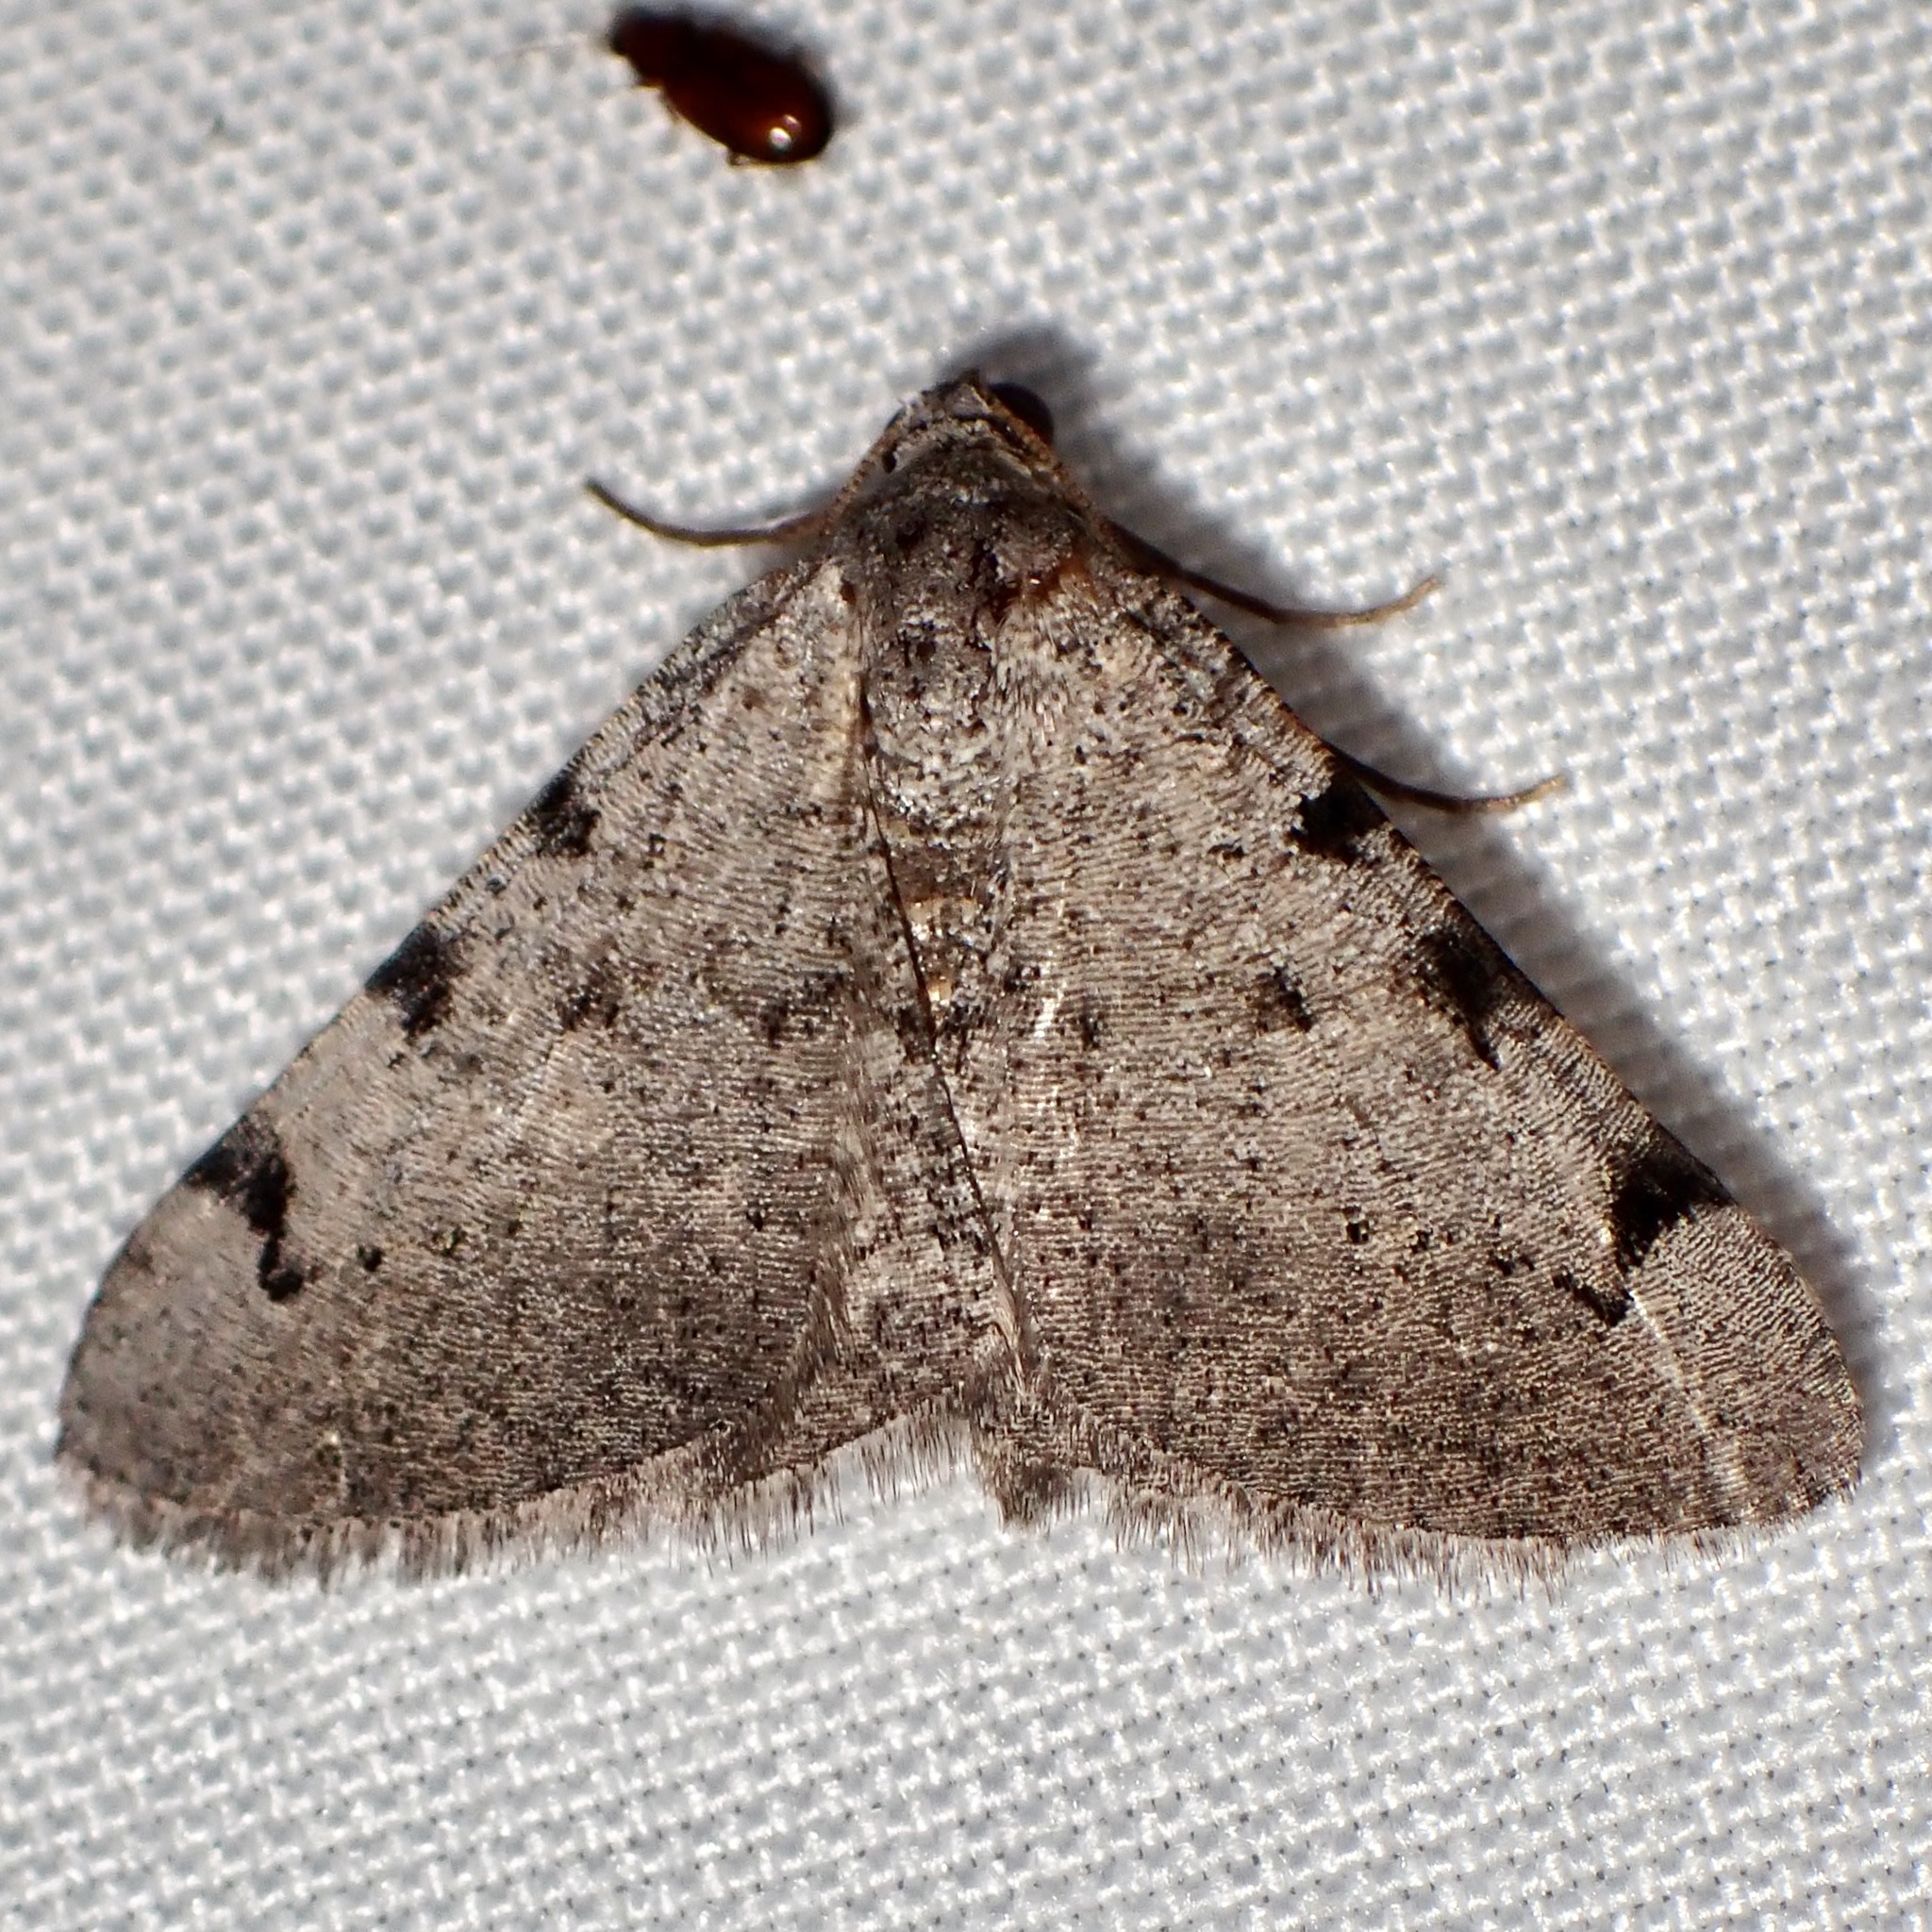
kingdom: Animalia
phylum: Arthropoda
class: Insecta
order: Lepidoptera
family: Geometridae
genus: Digrammia
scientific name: Digrammia triviata
